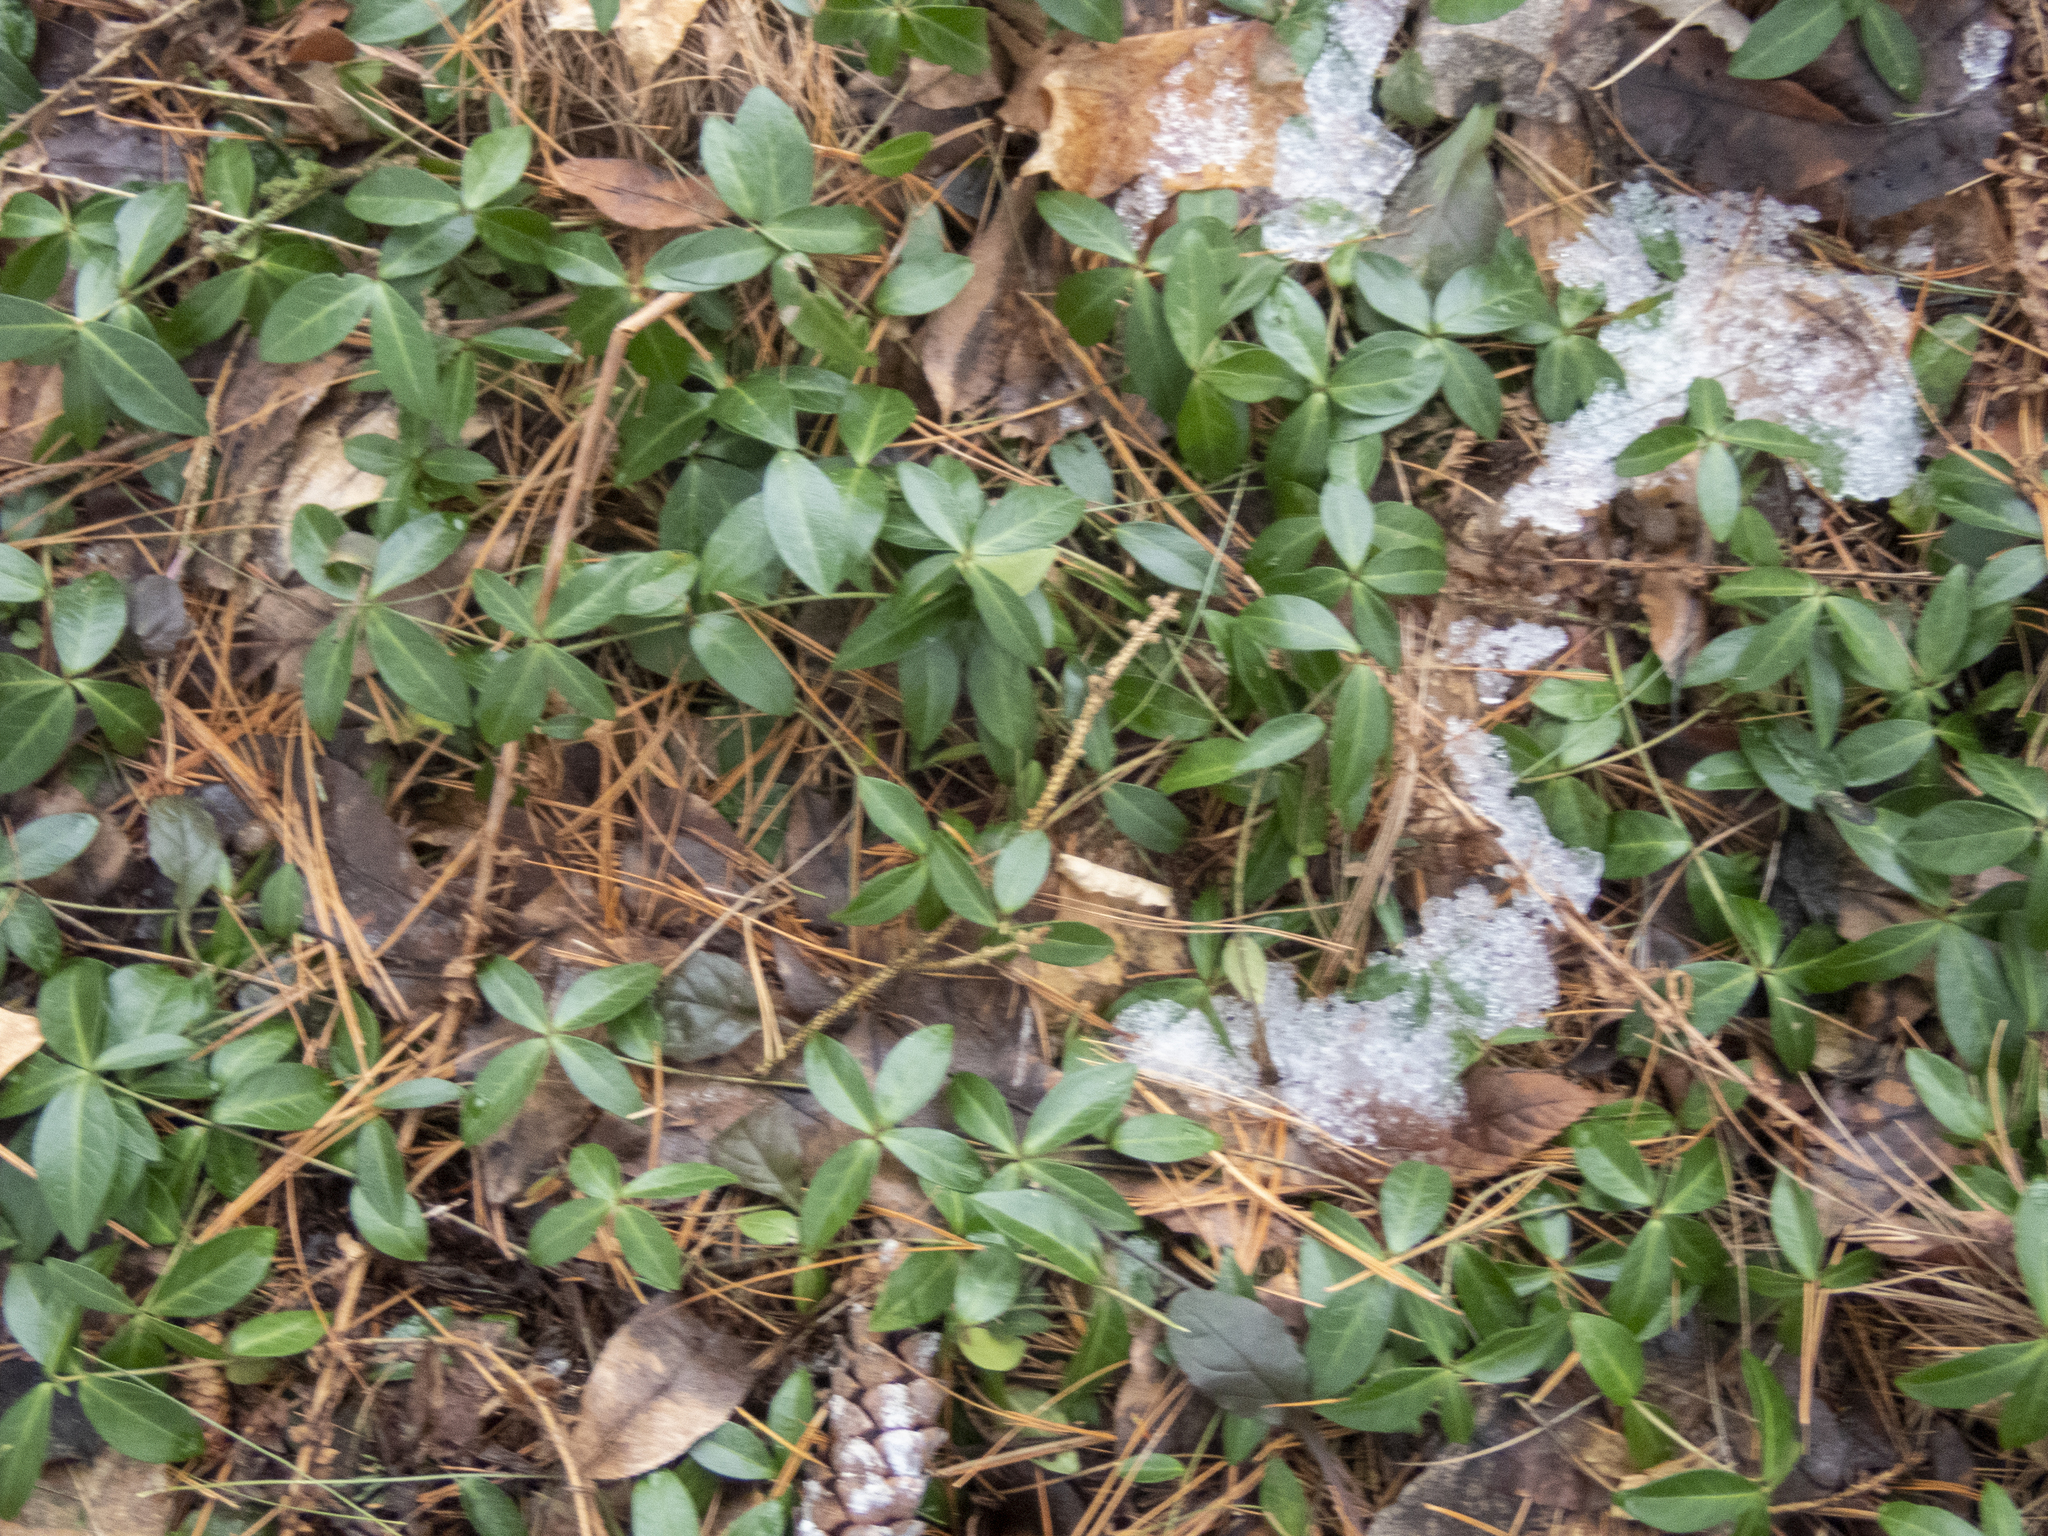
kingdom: Plantae
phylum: Tracheophyta
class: Magnoliopsida
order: Gentianales
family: Apocynaceae
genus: Vinca
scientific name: Vinca minor
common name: Lesser periwinkle
